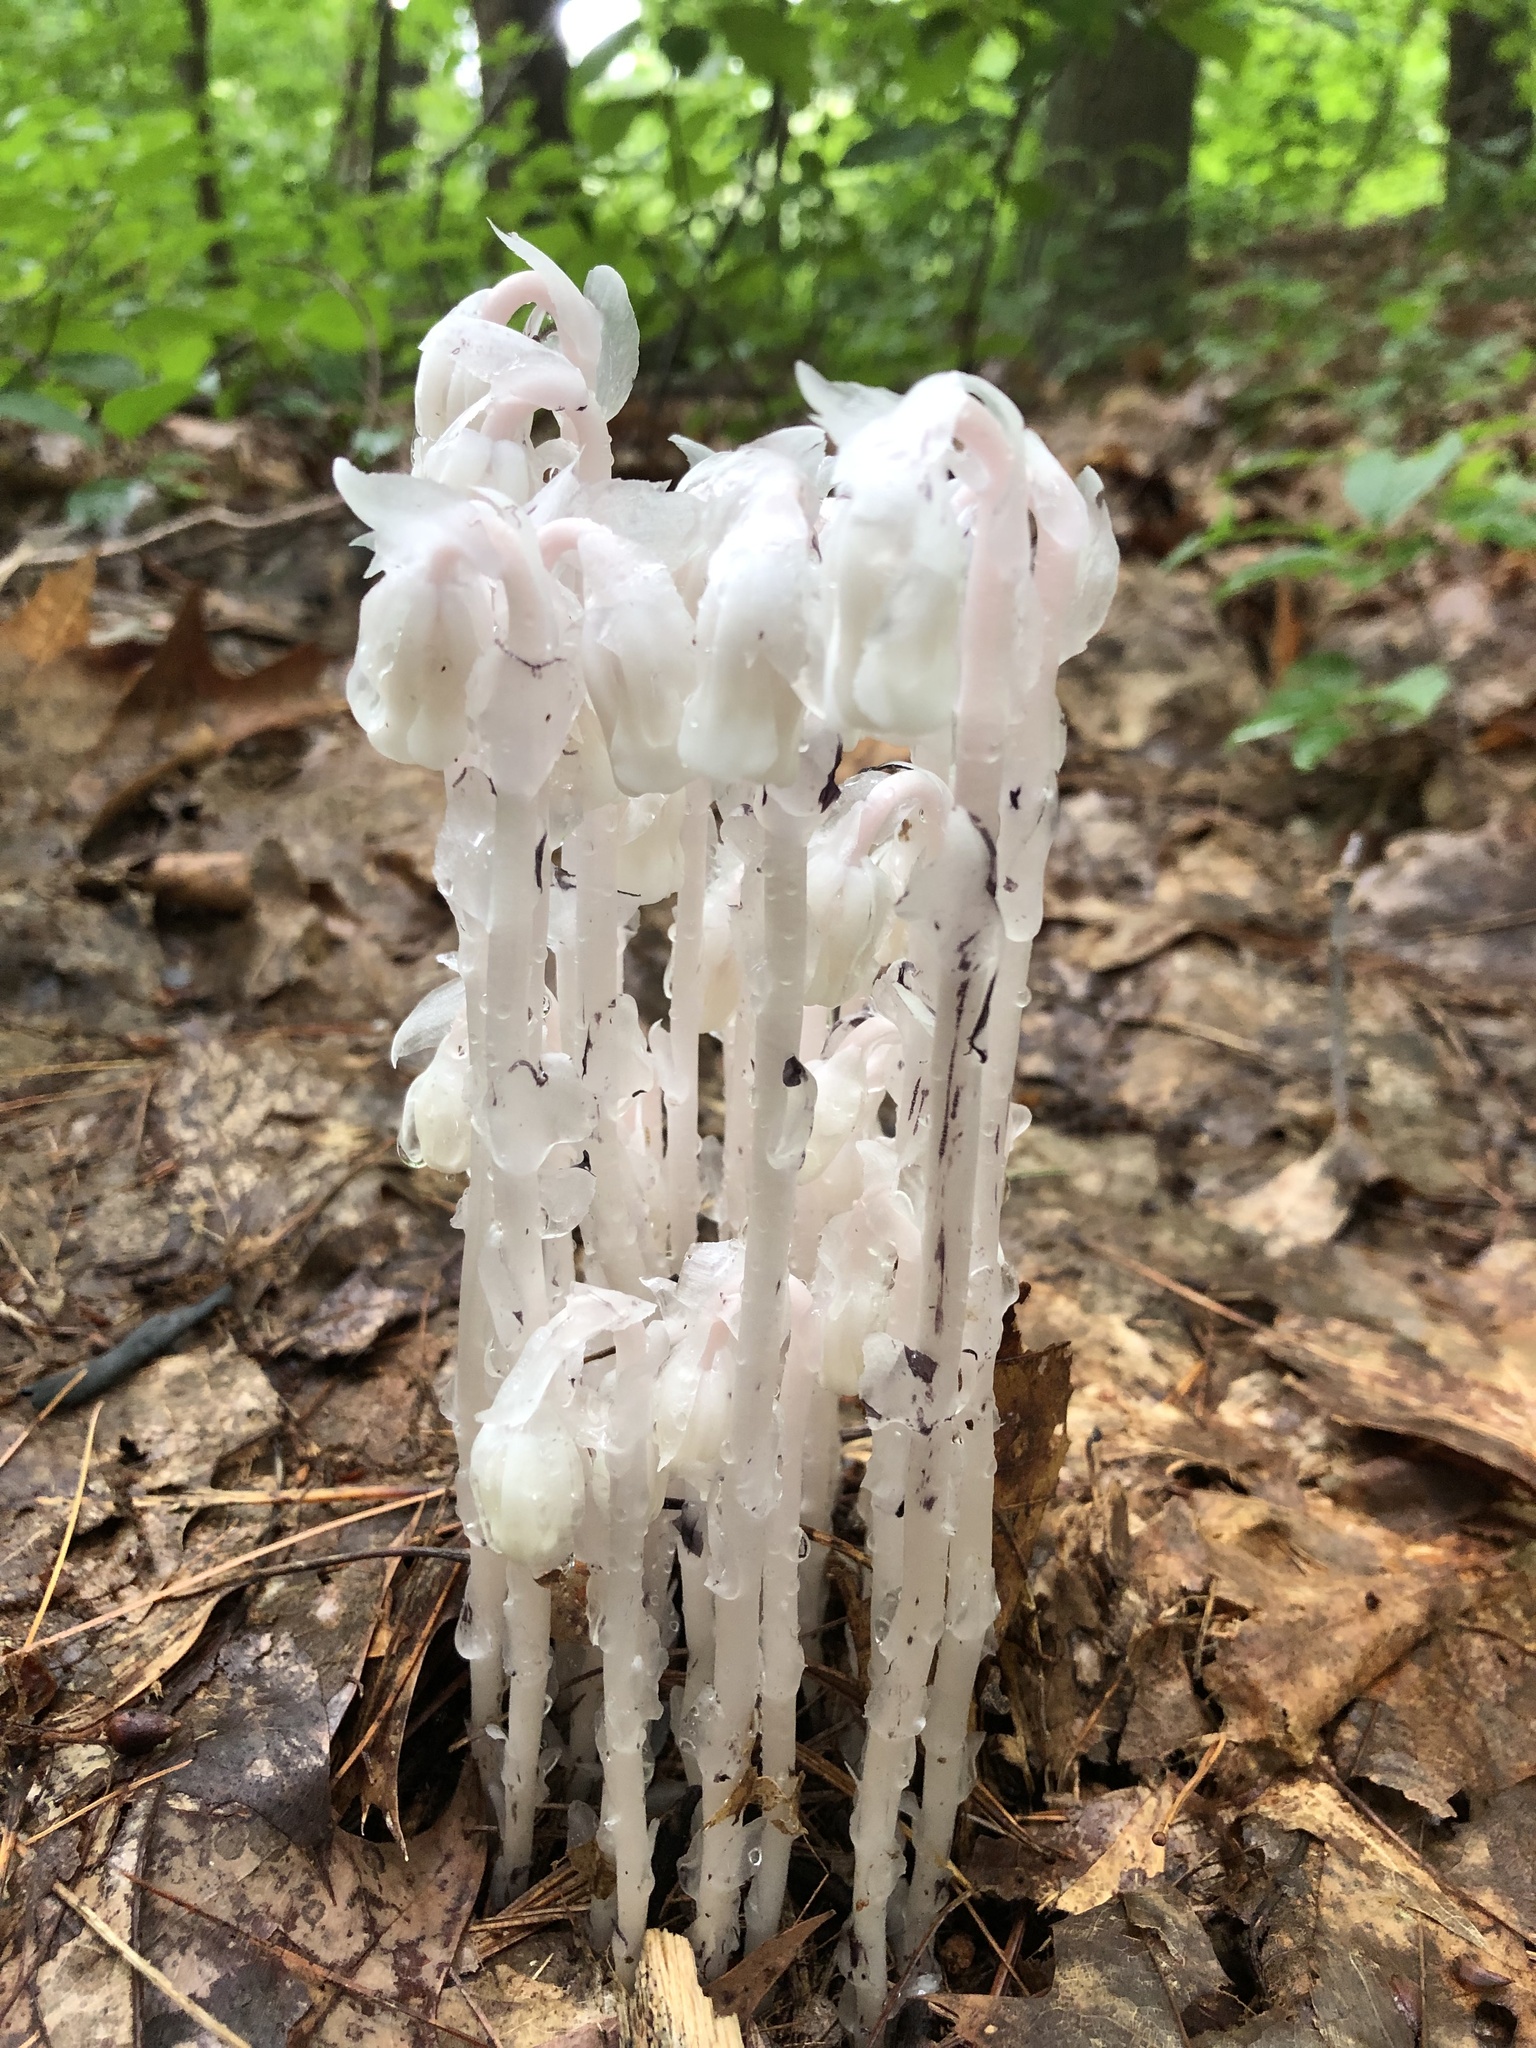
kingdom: Plantae
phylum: Tracheophyta
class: Magnoliopsida
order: Ericales
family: Ericaceae
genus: Monotropa
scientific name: Monotropa uniflora
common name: Convulsion root
